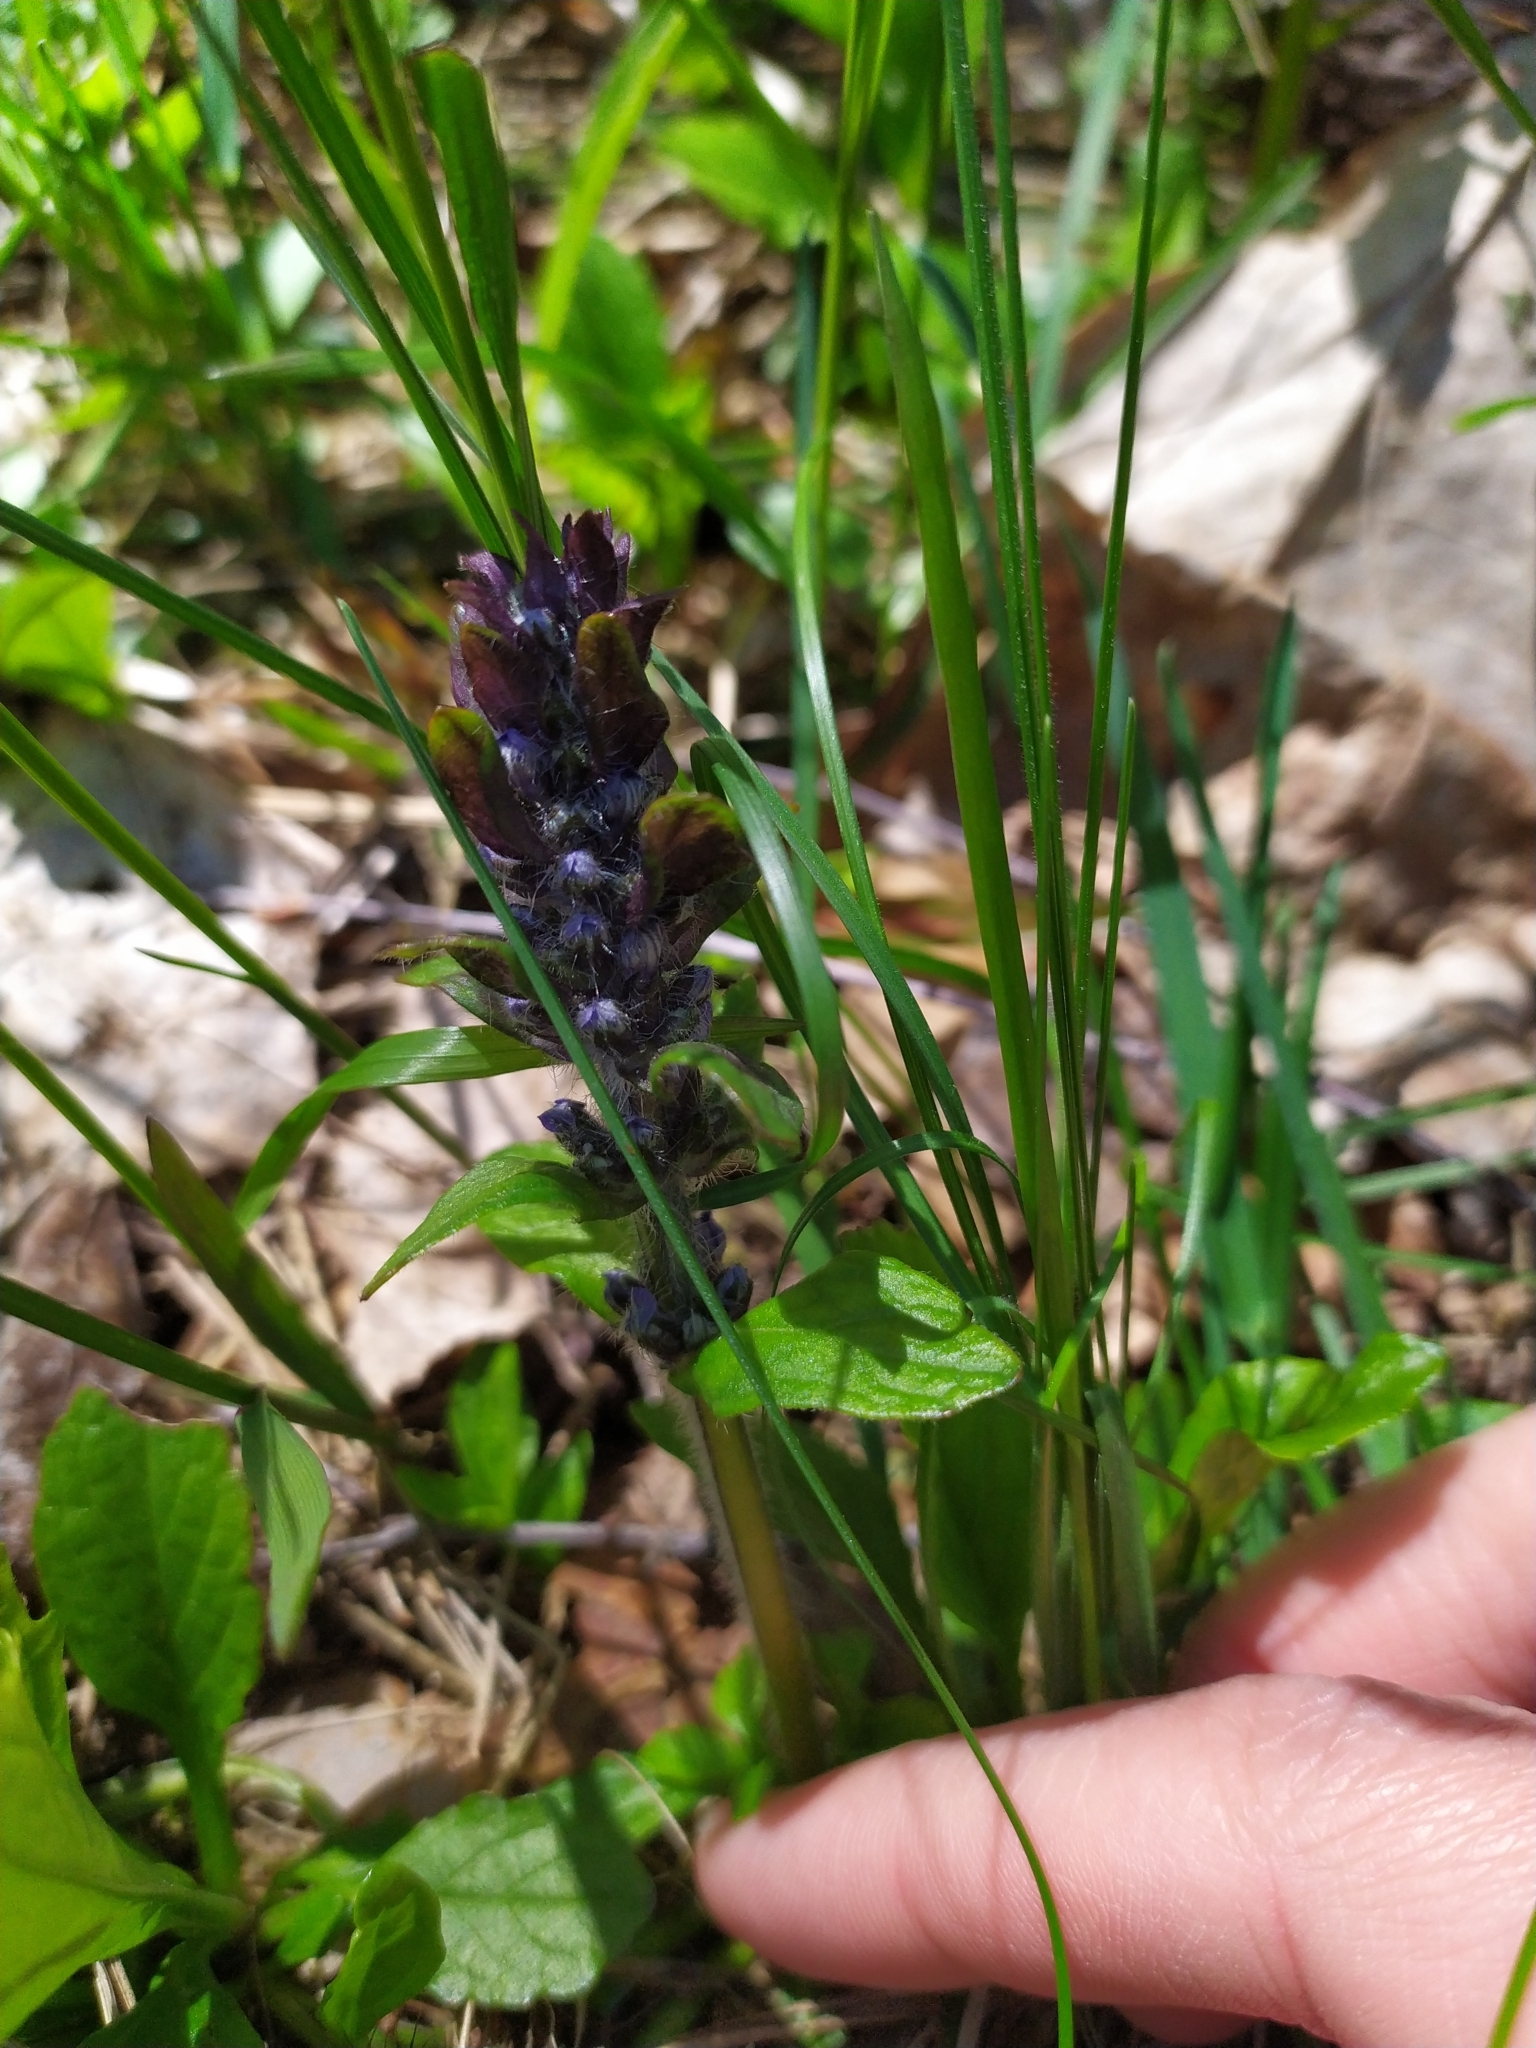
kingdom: Plantae
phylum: Tracheophyta
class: Magnoliopsida
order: Lamiales
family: Lamiaceae
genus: Ajuga
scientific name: Ajuga reptans
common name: Bugle
